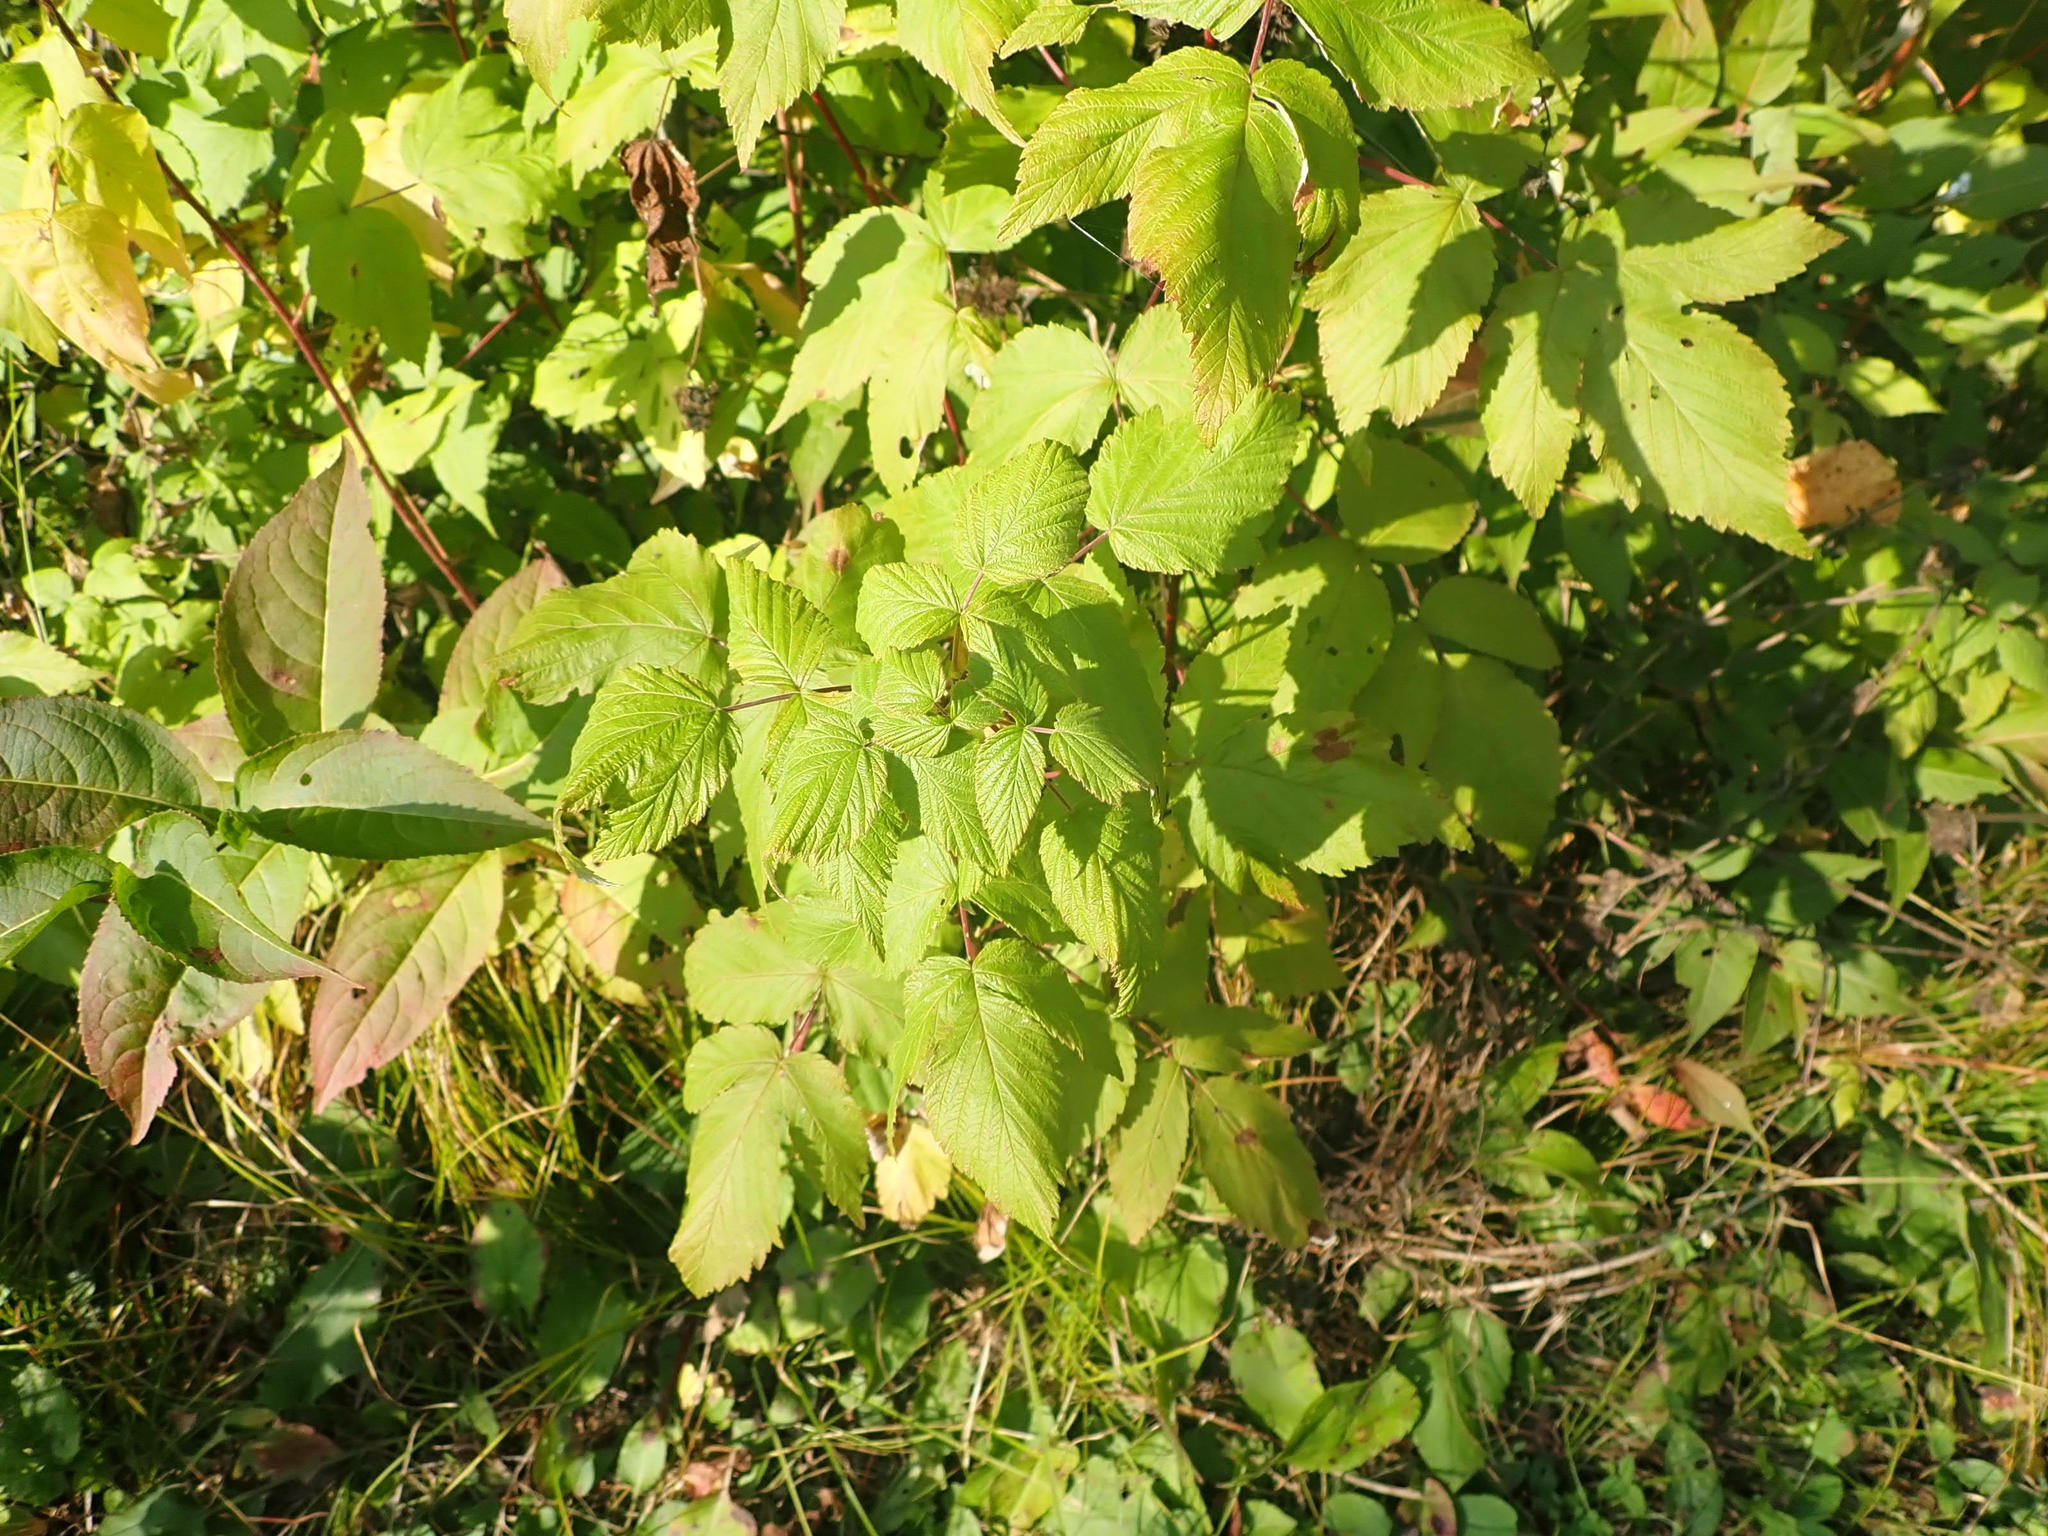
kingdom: Plantae
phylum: Tracheophyta
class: Magnoliopsida
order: Rosales
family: Rosaceae
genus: Rubus
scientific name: Rubus idaeus
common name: Raspberry
